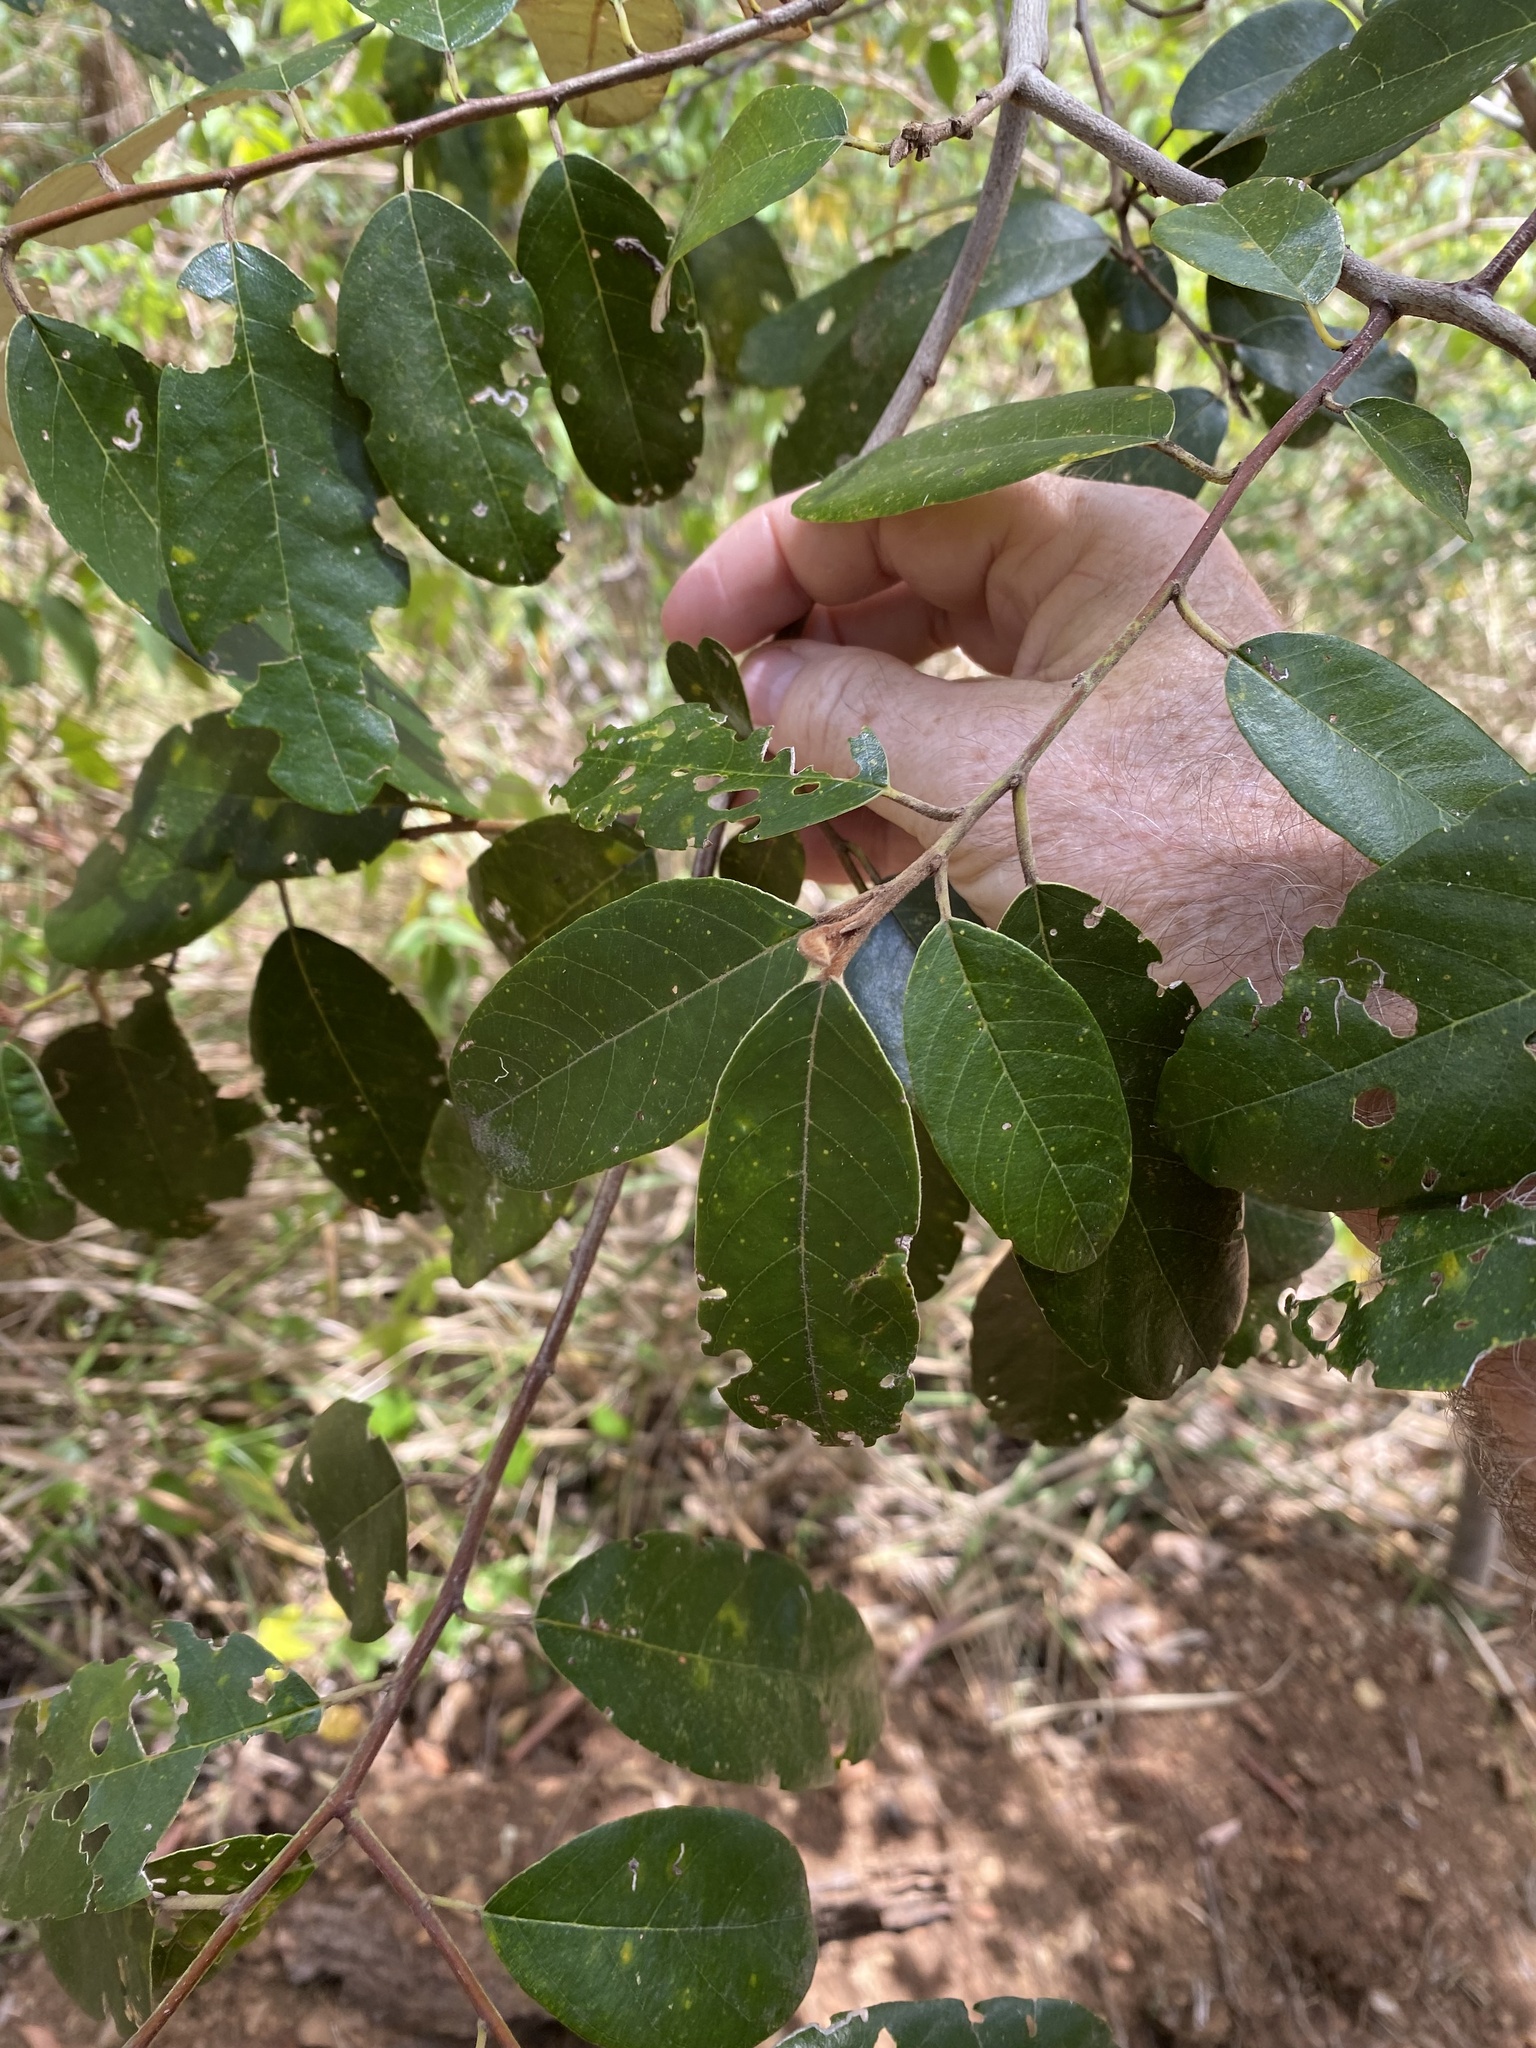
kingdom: Plantae
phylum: Tracheophyta
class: Magnoliopsida
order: Rosales
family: Rhamnaceae
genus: Alphitonia
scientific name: Alphitonia excelsa
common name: Red ash
